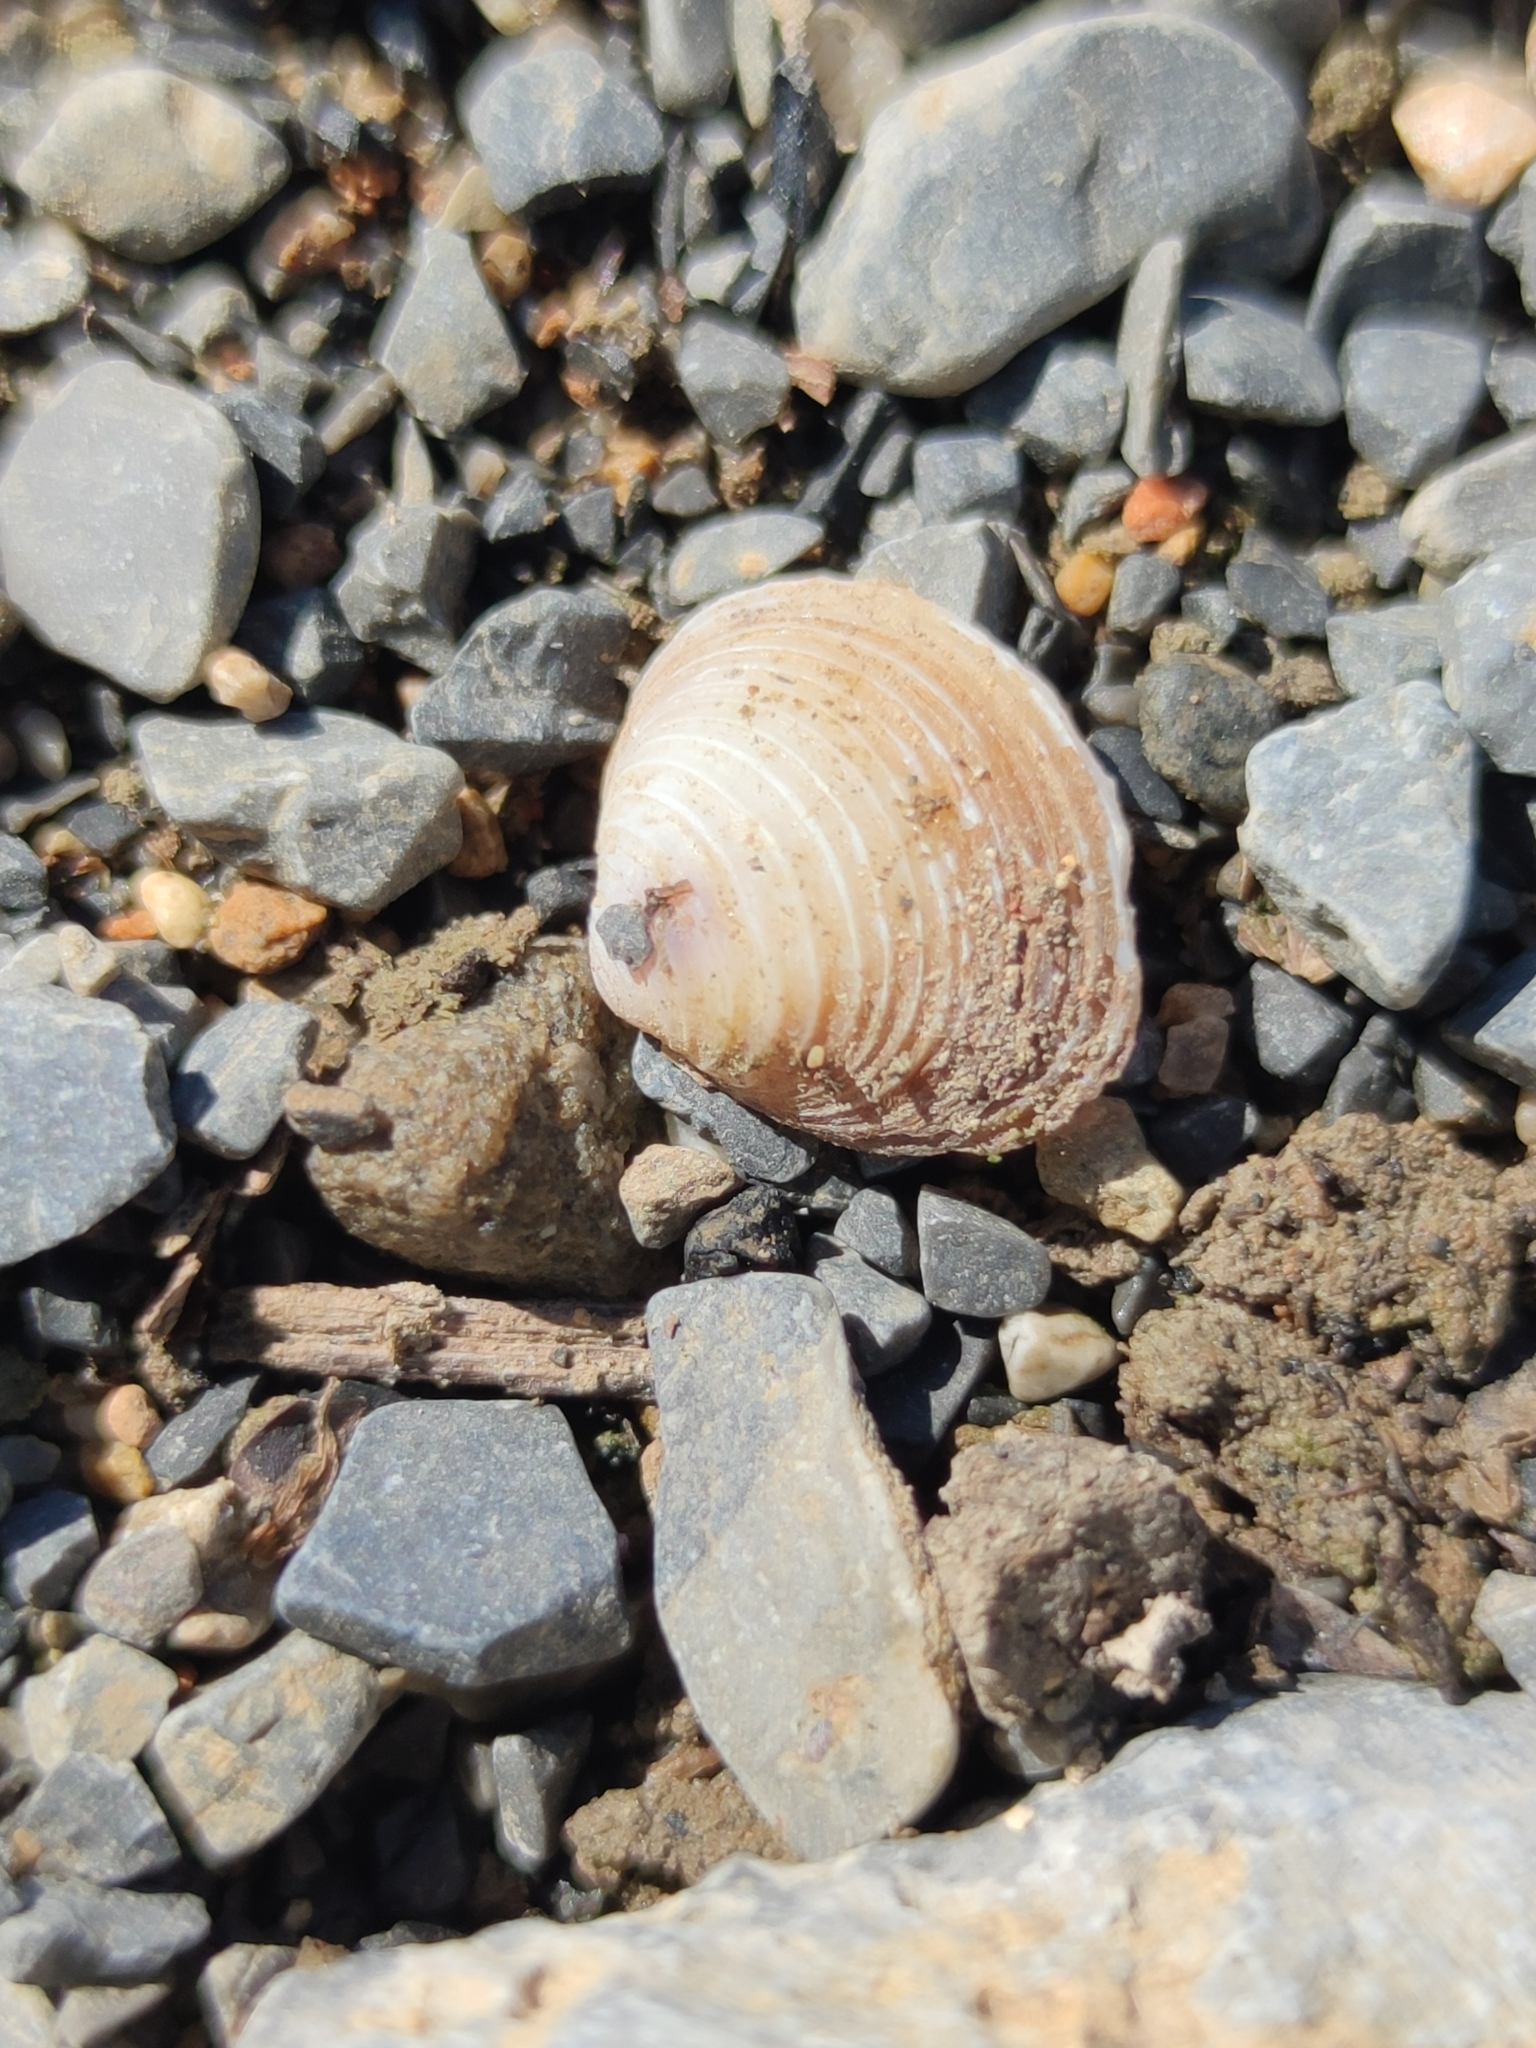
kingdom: Animalia
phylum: Mollusca
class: Bivalvia
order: Venerida
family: Cyrenidae
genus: Corbicula
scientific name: Corbicula fluminea
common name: Asian clam
